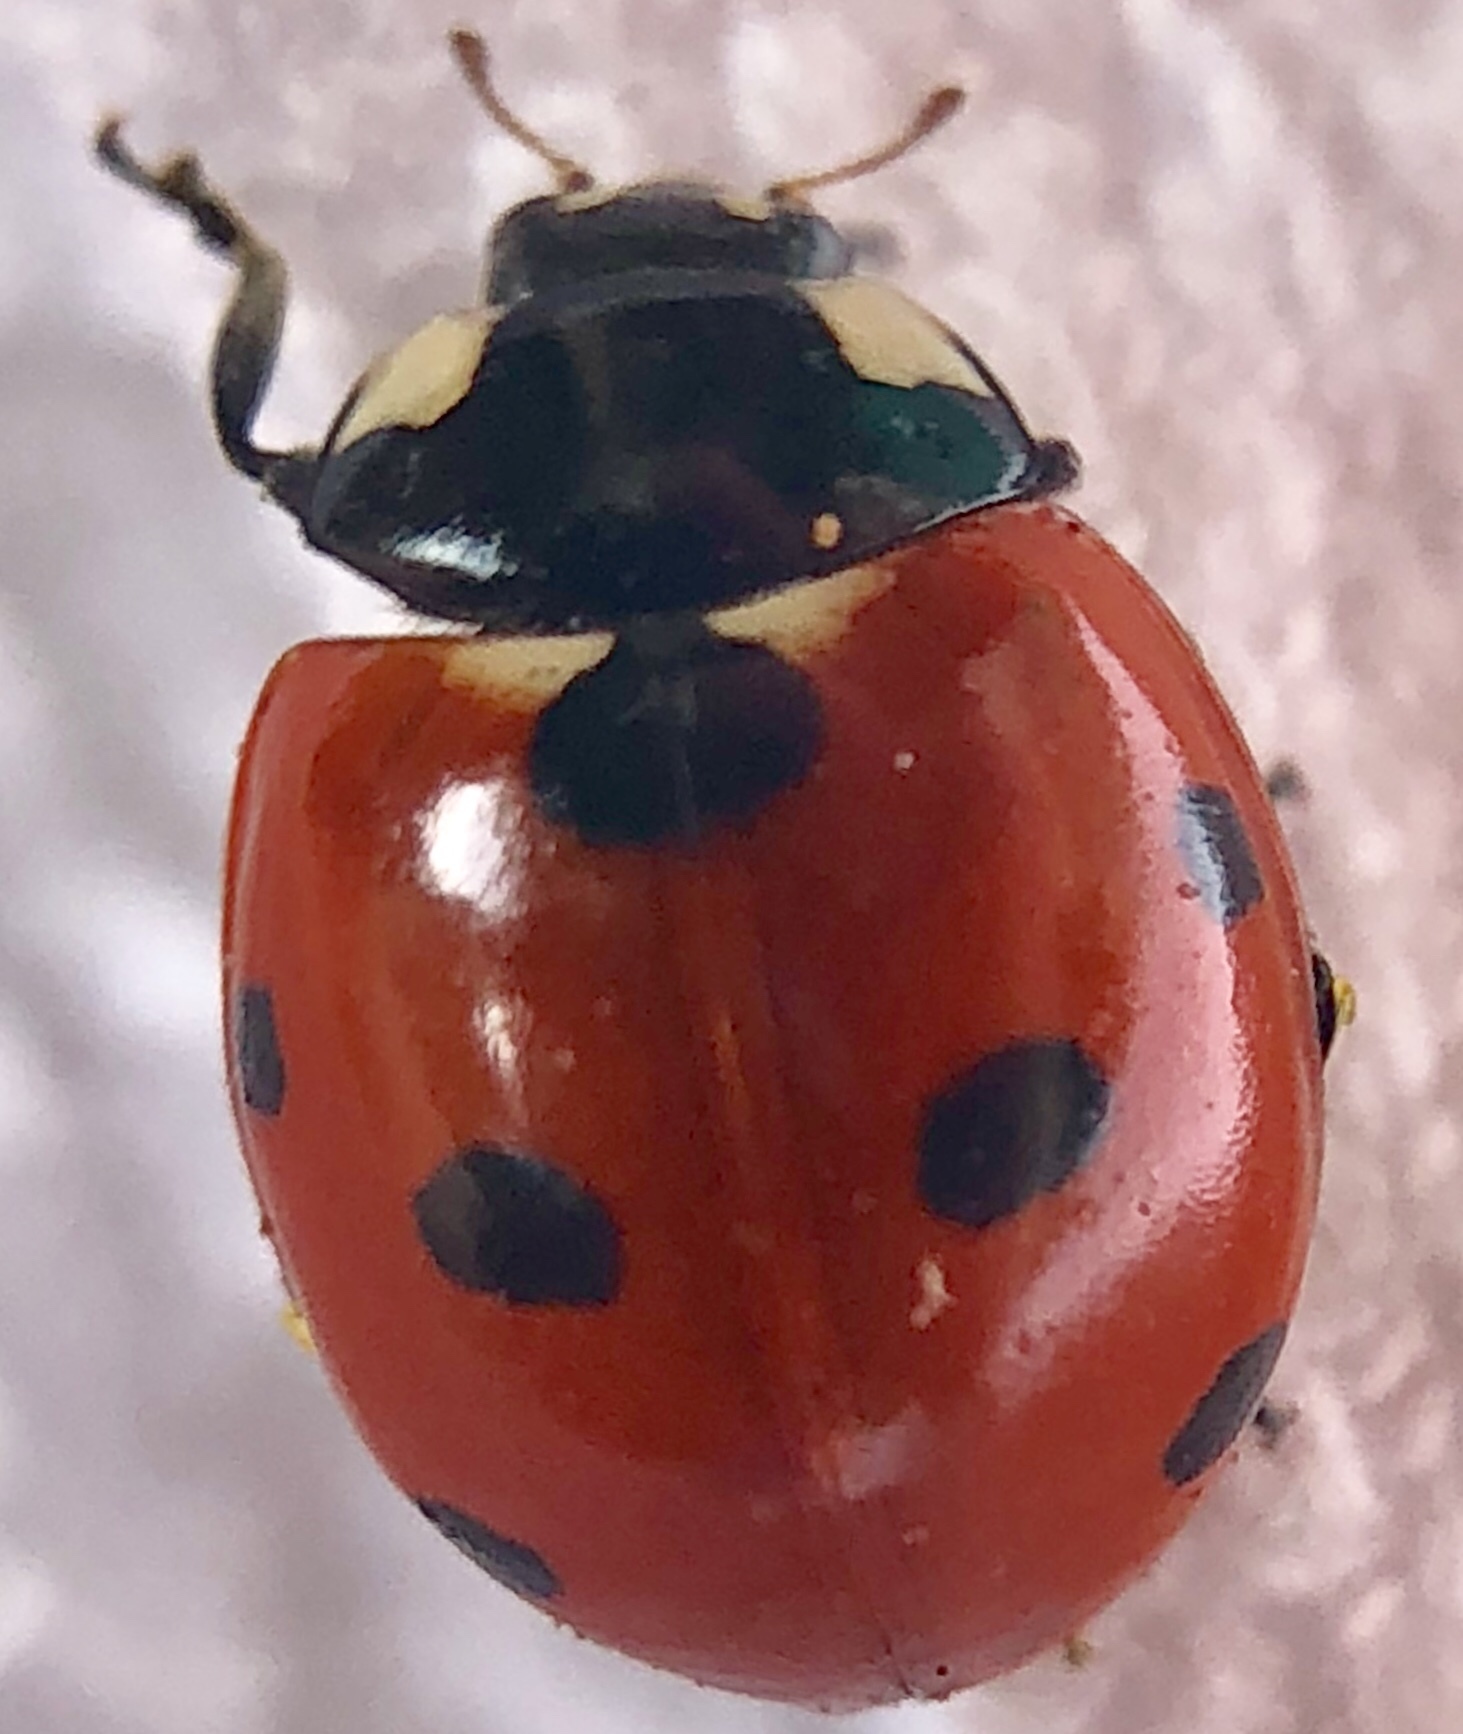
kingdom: Animalia
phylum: Arthropoda
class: Insecta
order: Coleoptera
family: Coccinellidae
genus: Coccinella
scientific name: Coccinella septempunctata
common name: Sevenspotted lady beetle
